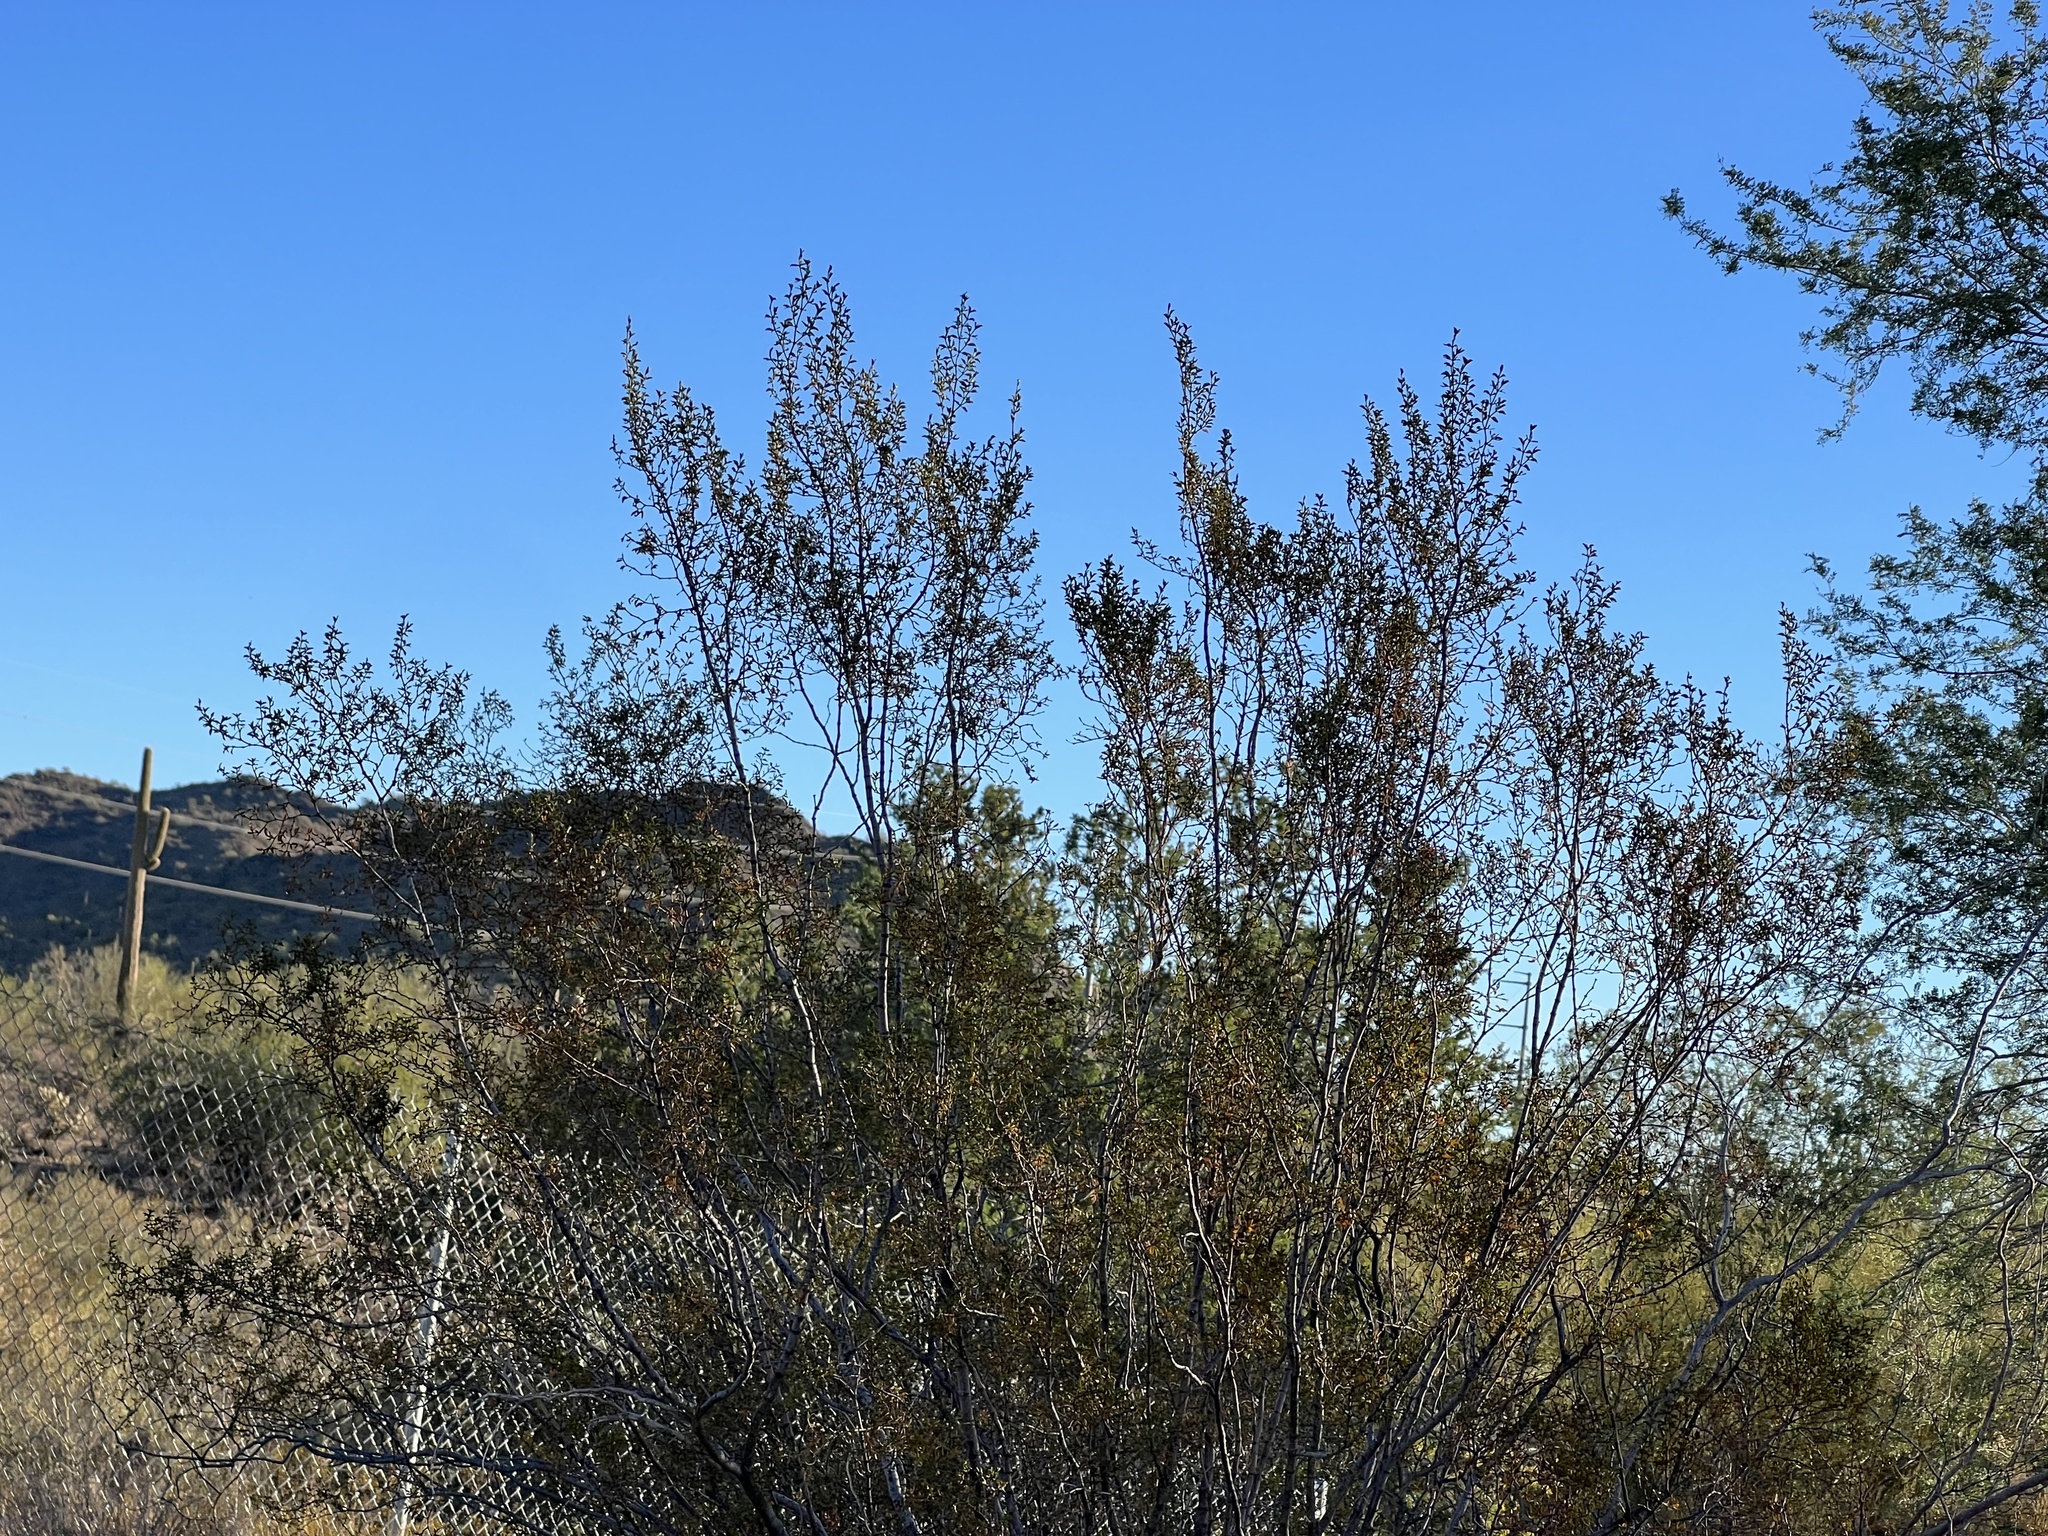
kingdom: Plantae
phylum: Tracheophyta
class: Magnoliopsida
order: Zygophyllales
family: Zygophyllaceae
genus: Larrea
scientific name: Larrea tridentata
